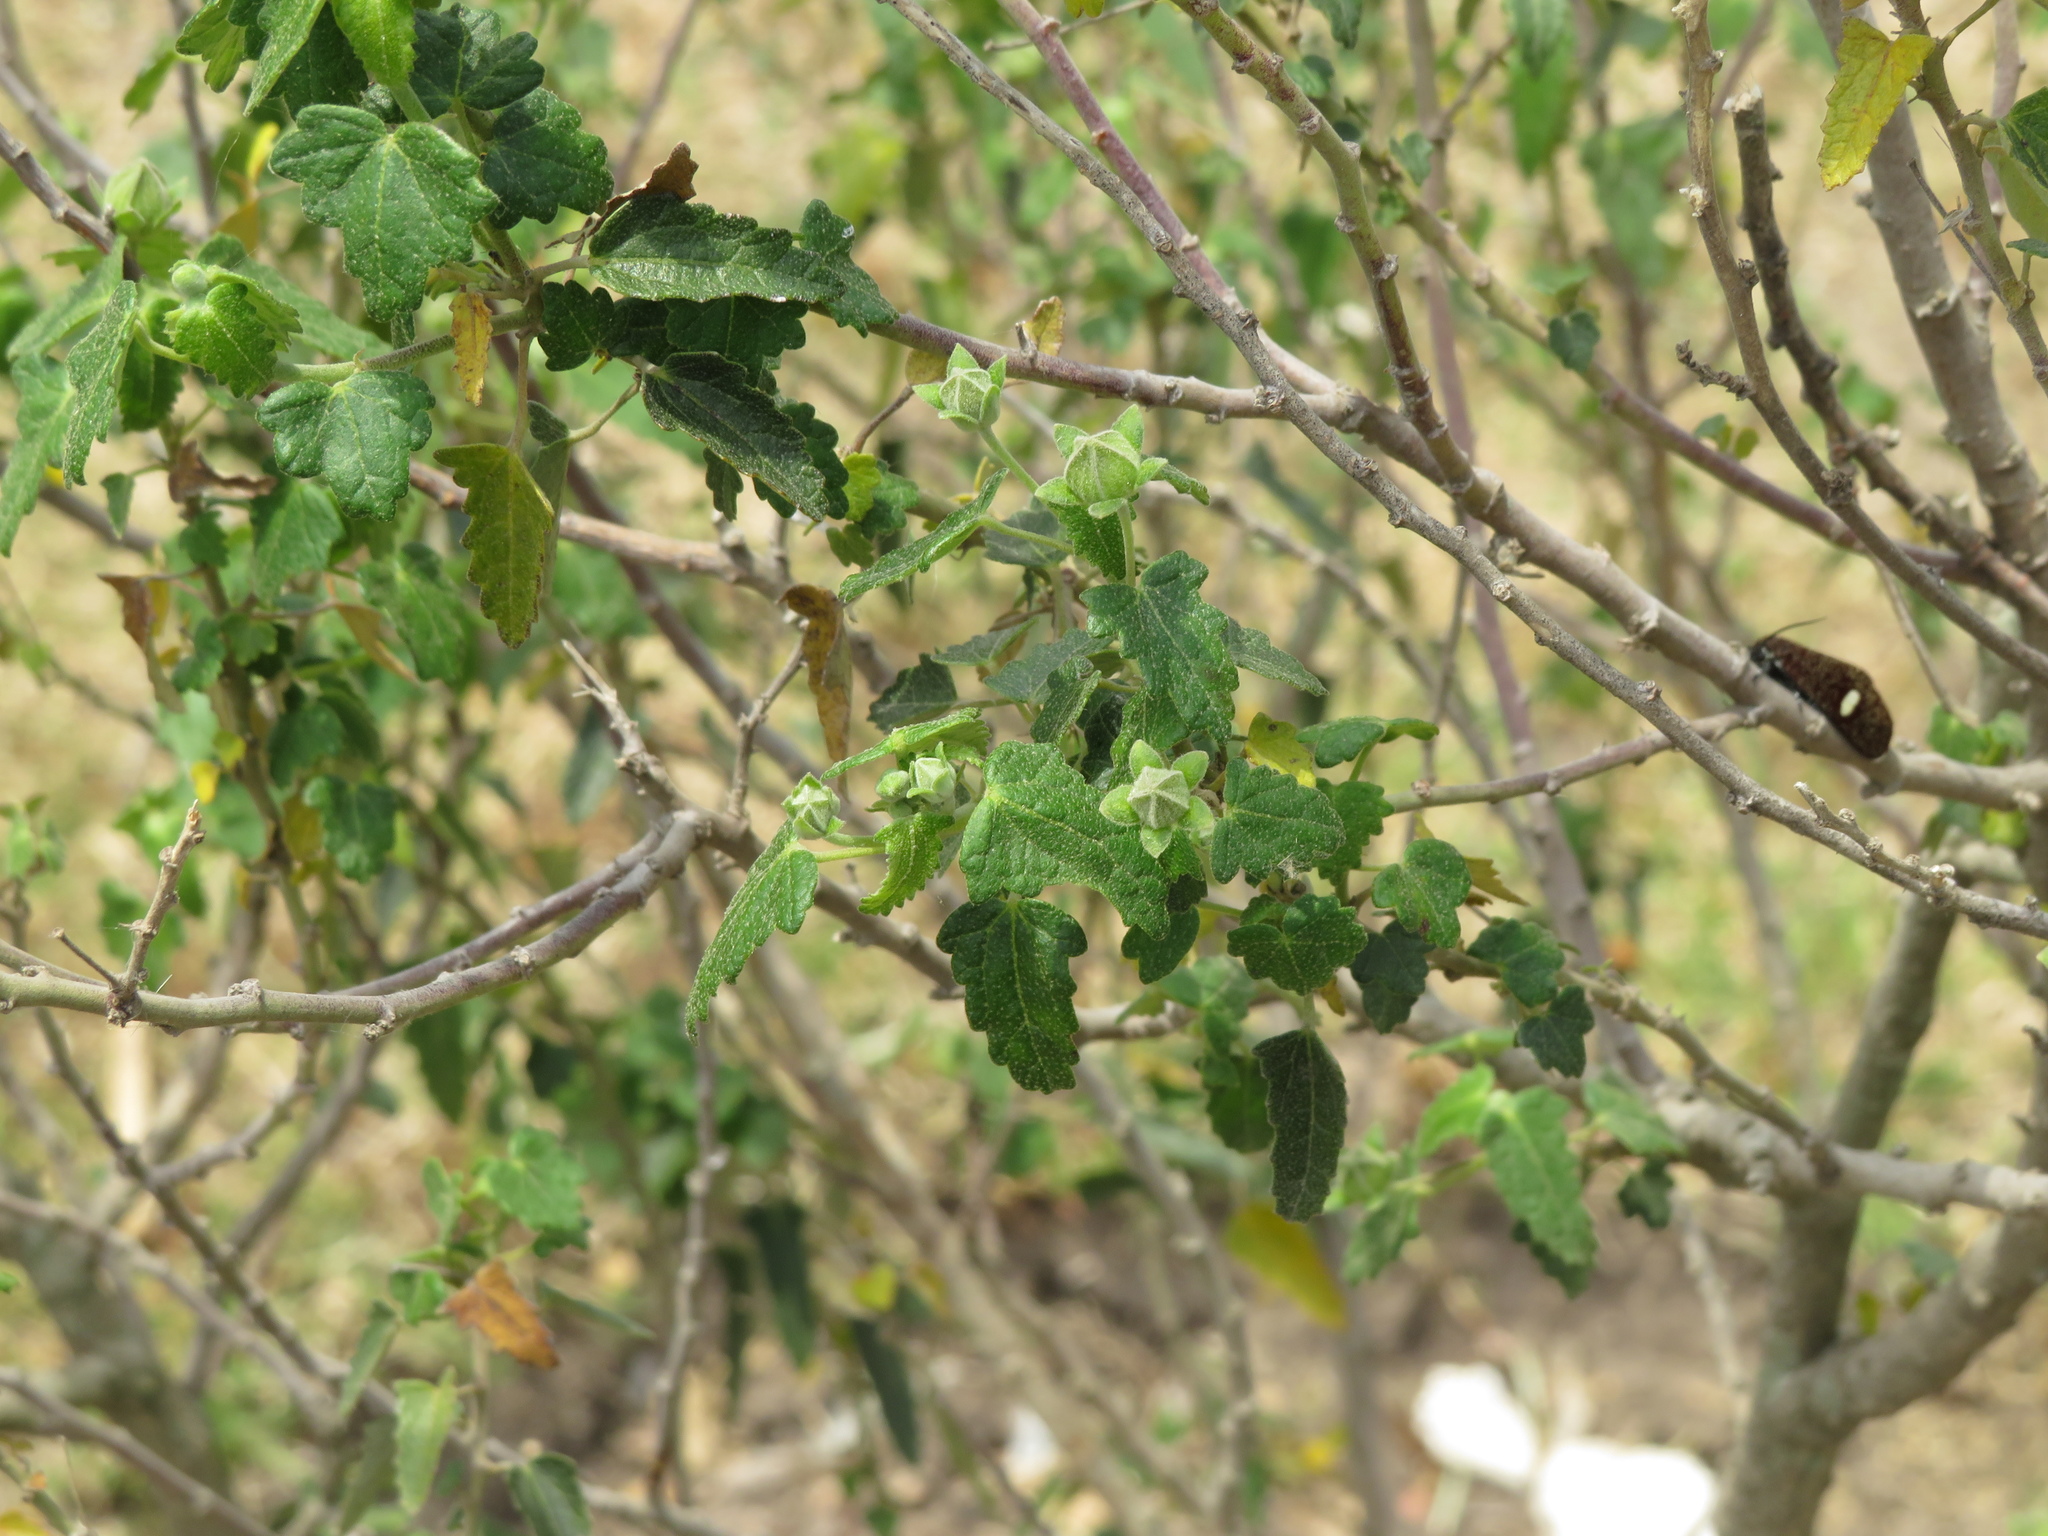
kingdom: Plantae
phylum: Tracheophyta
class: Magnoliopsida
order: Malvales
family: Malvaceae
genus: Pavonia
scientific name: Pavonia hastata
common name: Spearleaf swampmallow
